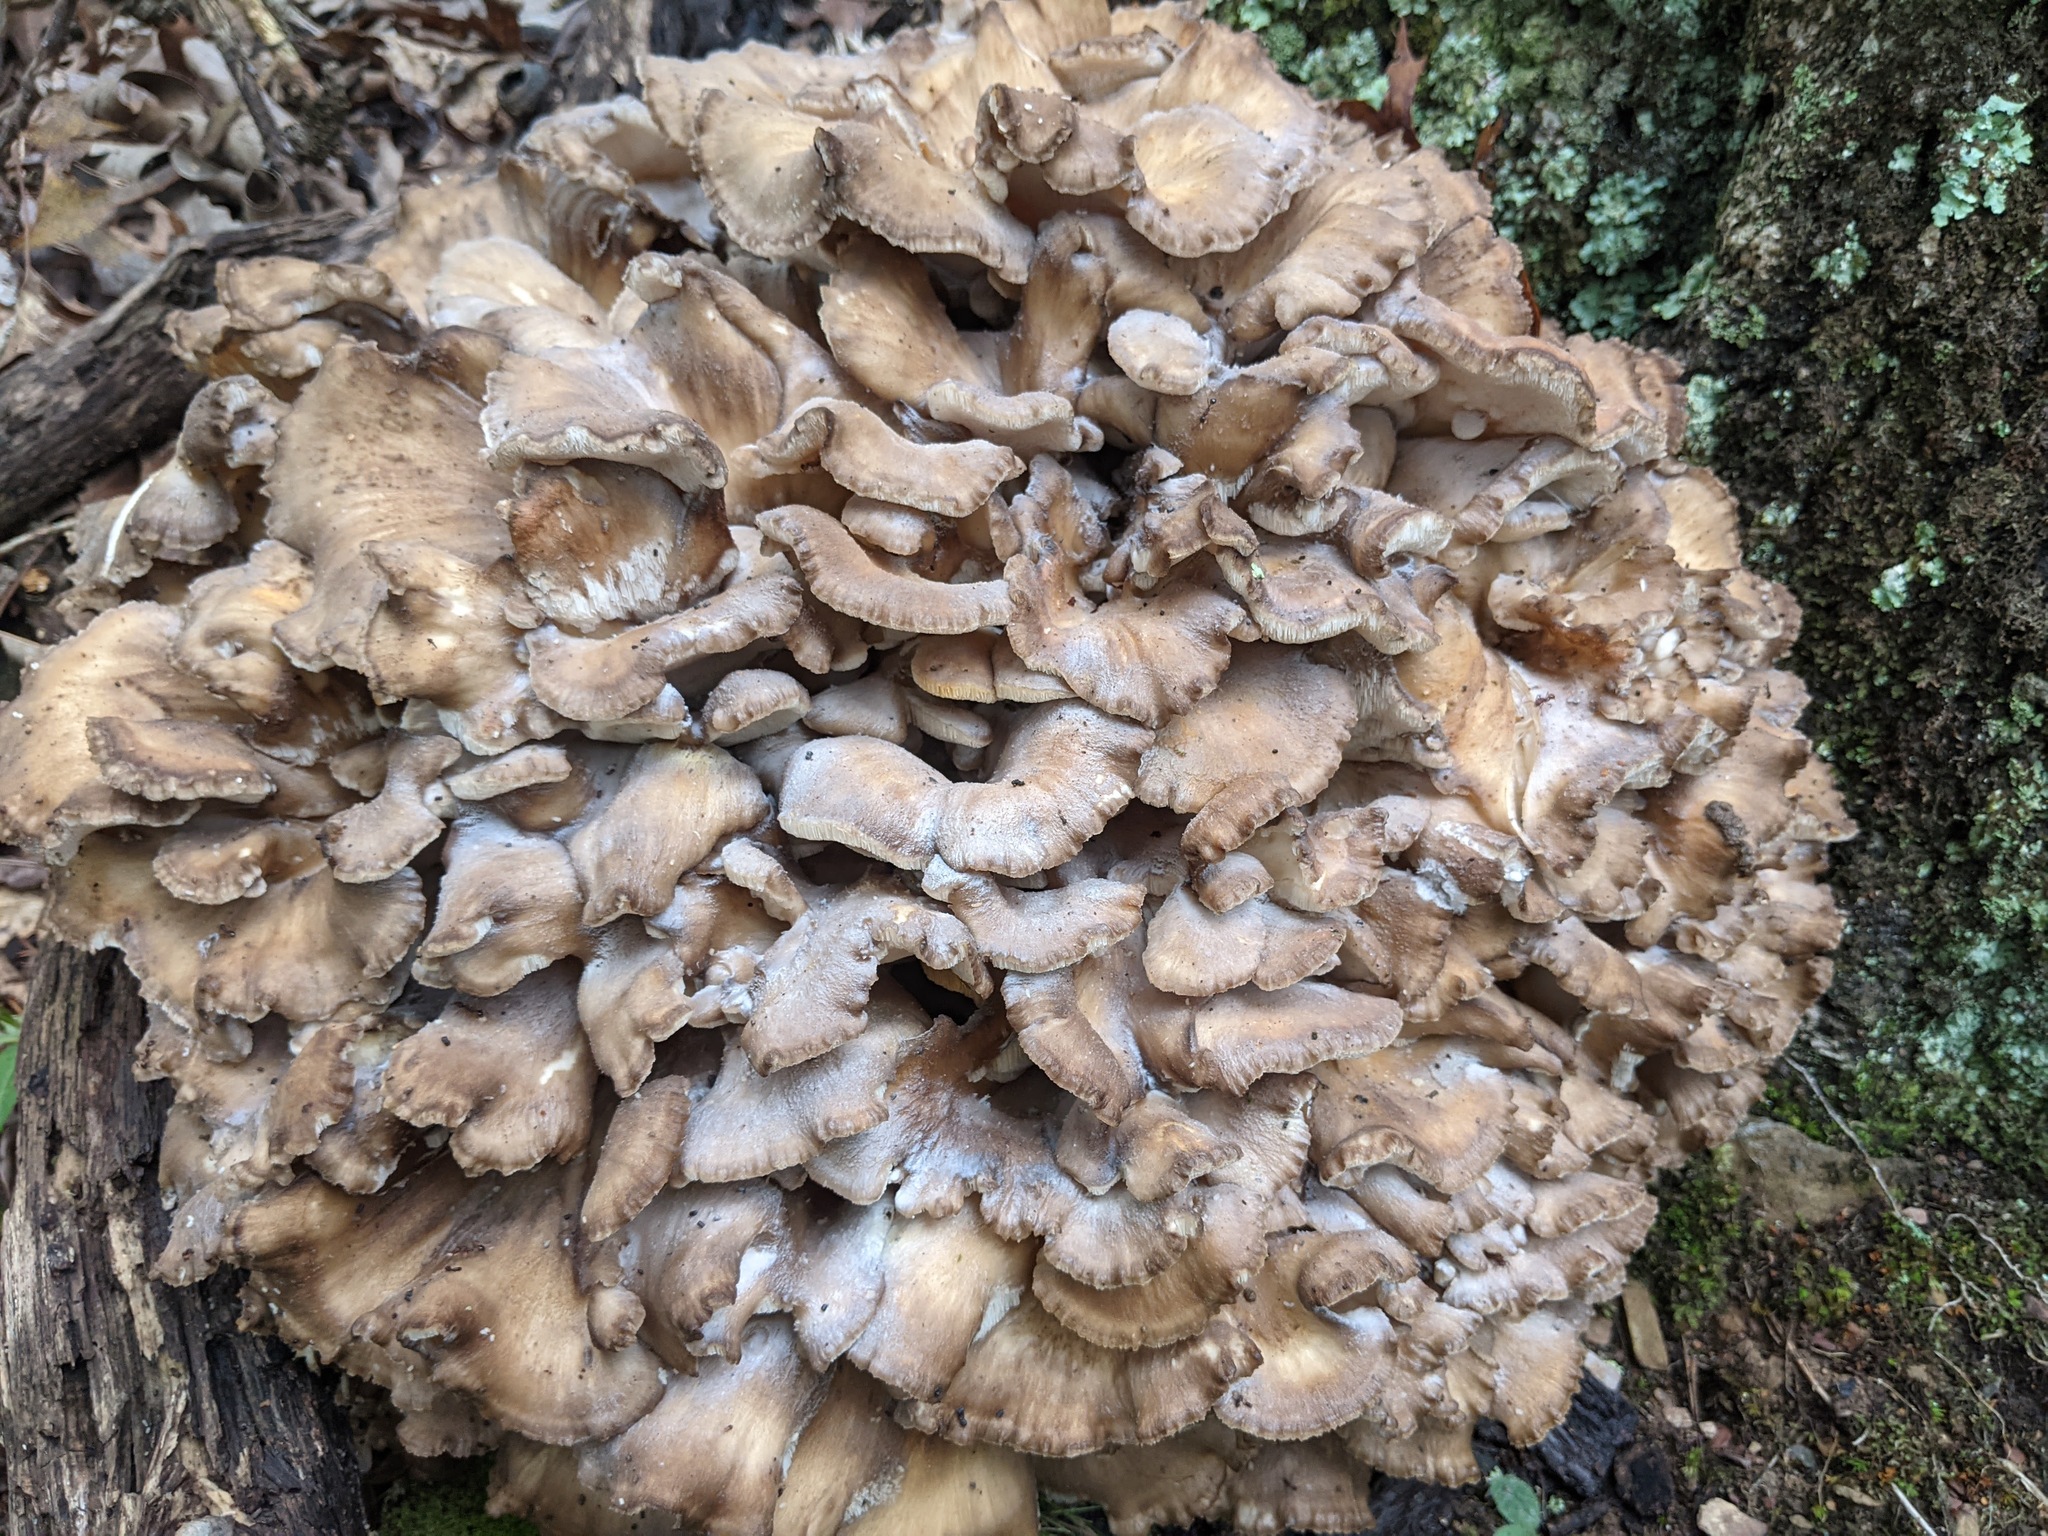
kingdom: Fungi
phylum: Basidiomycota
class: Agaricomycetes
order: Polyporales
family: Grifolaceae
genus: Grifola
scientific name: Grifola frondosa
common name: Hen of the woods
